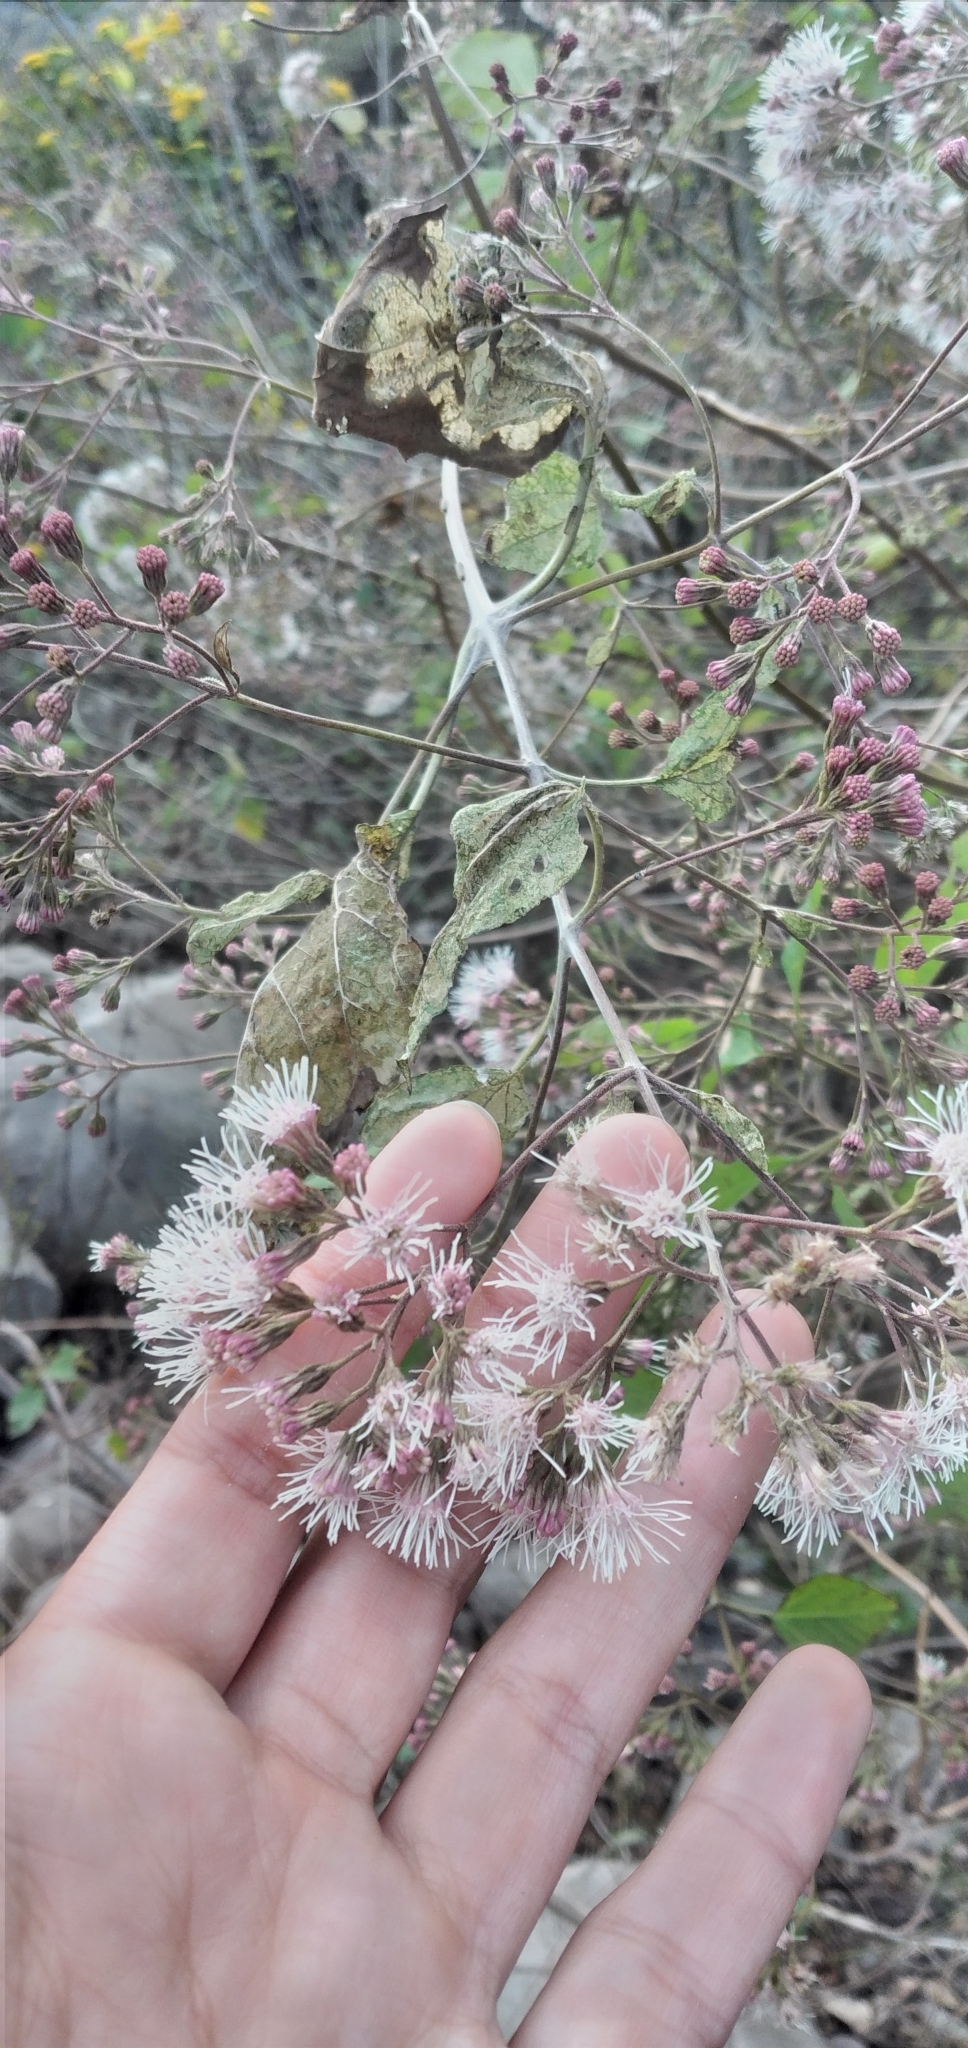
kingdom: Plantae
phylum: Tracheophyta
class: Magnoliopsida
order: Asterales
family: Asteraceae
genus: Kaunia
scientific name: Kaunia lasiophthalma
